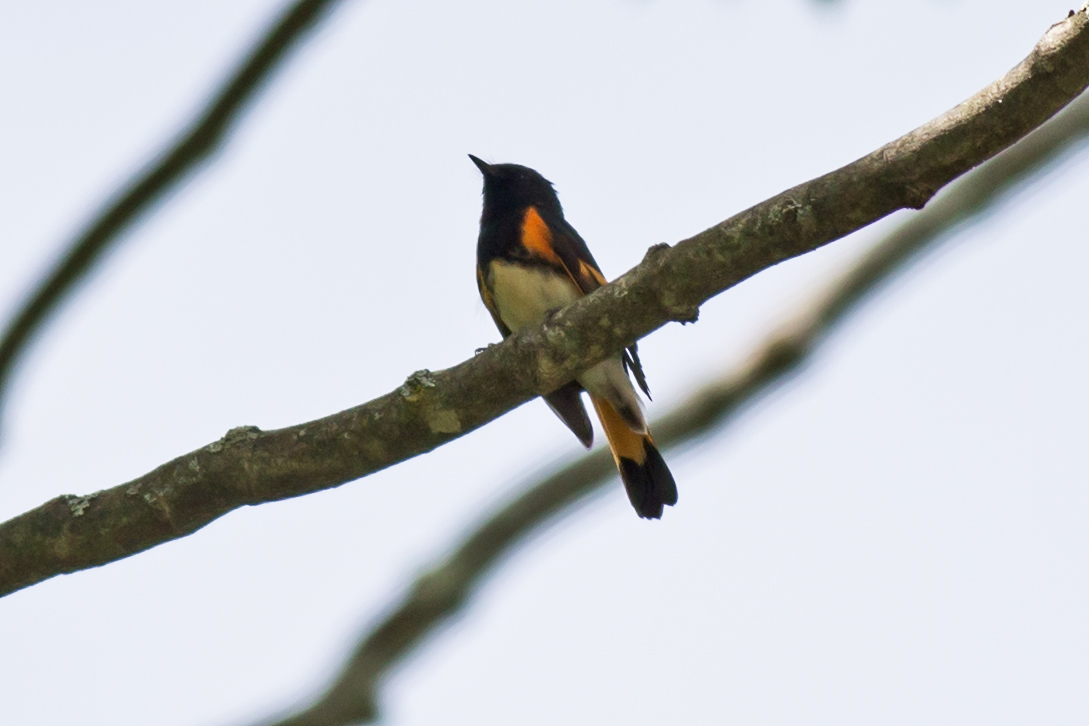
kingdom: Animalia
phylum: Chordata
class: Aves
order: Passeriformes
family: Parulidae
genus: Setophaga
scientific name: Setophaga ruticilla
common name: American redstart
